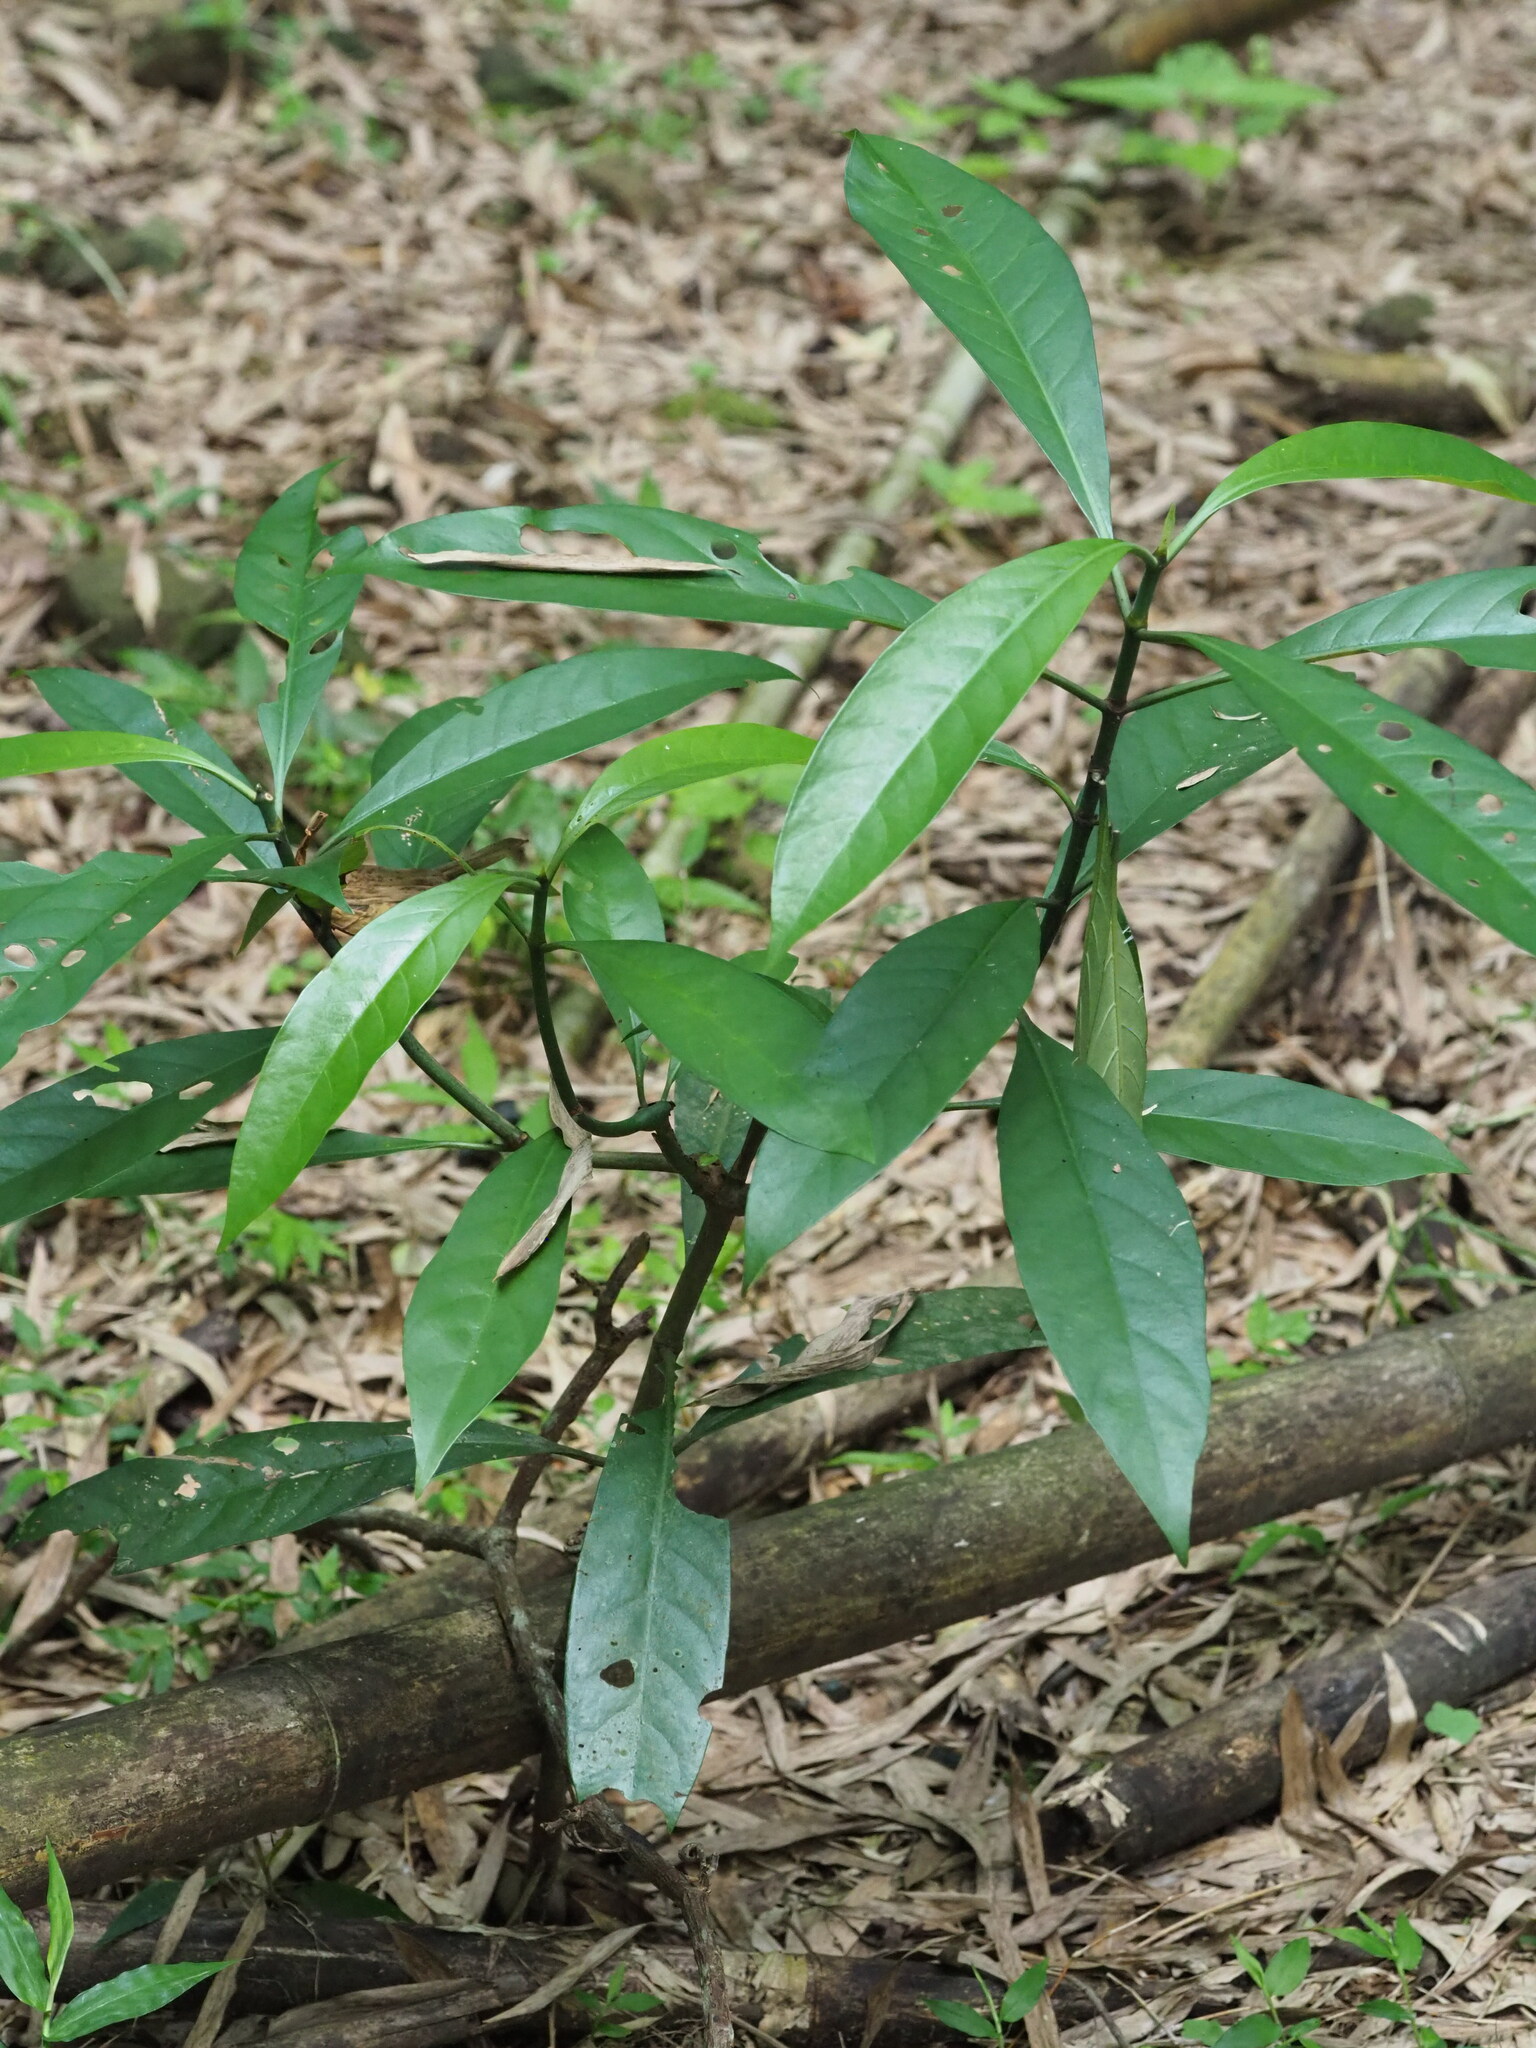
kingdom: Plantae
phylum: Tracheophyta
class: Magnoliopsida
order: Gentianales
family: Rubiaceae
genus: Psychotria
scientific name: Psychotria asiatica
